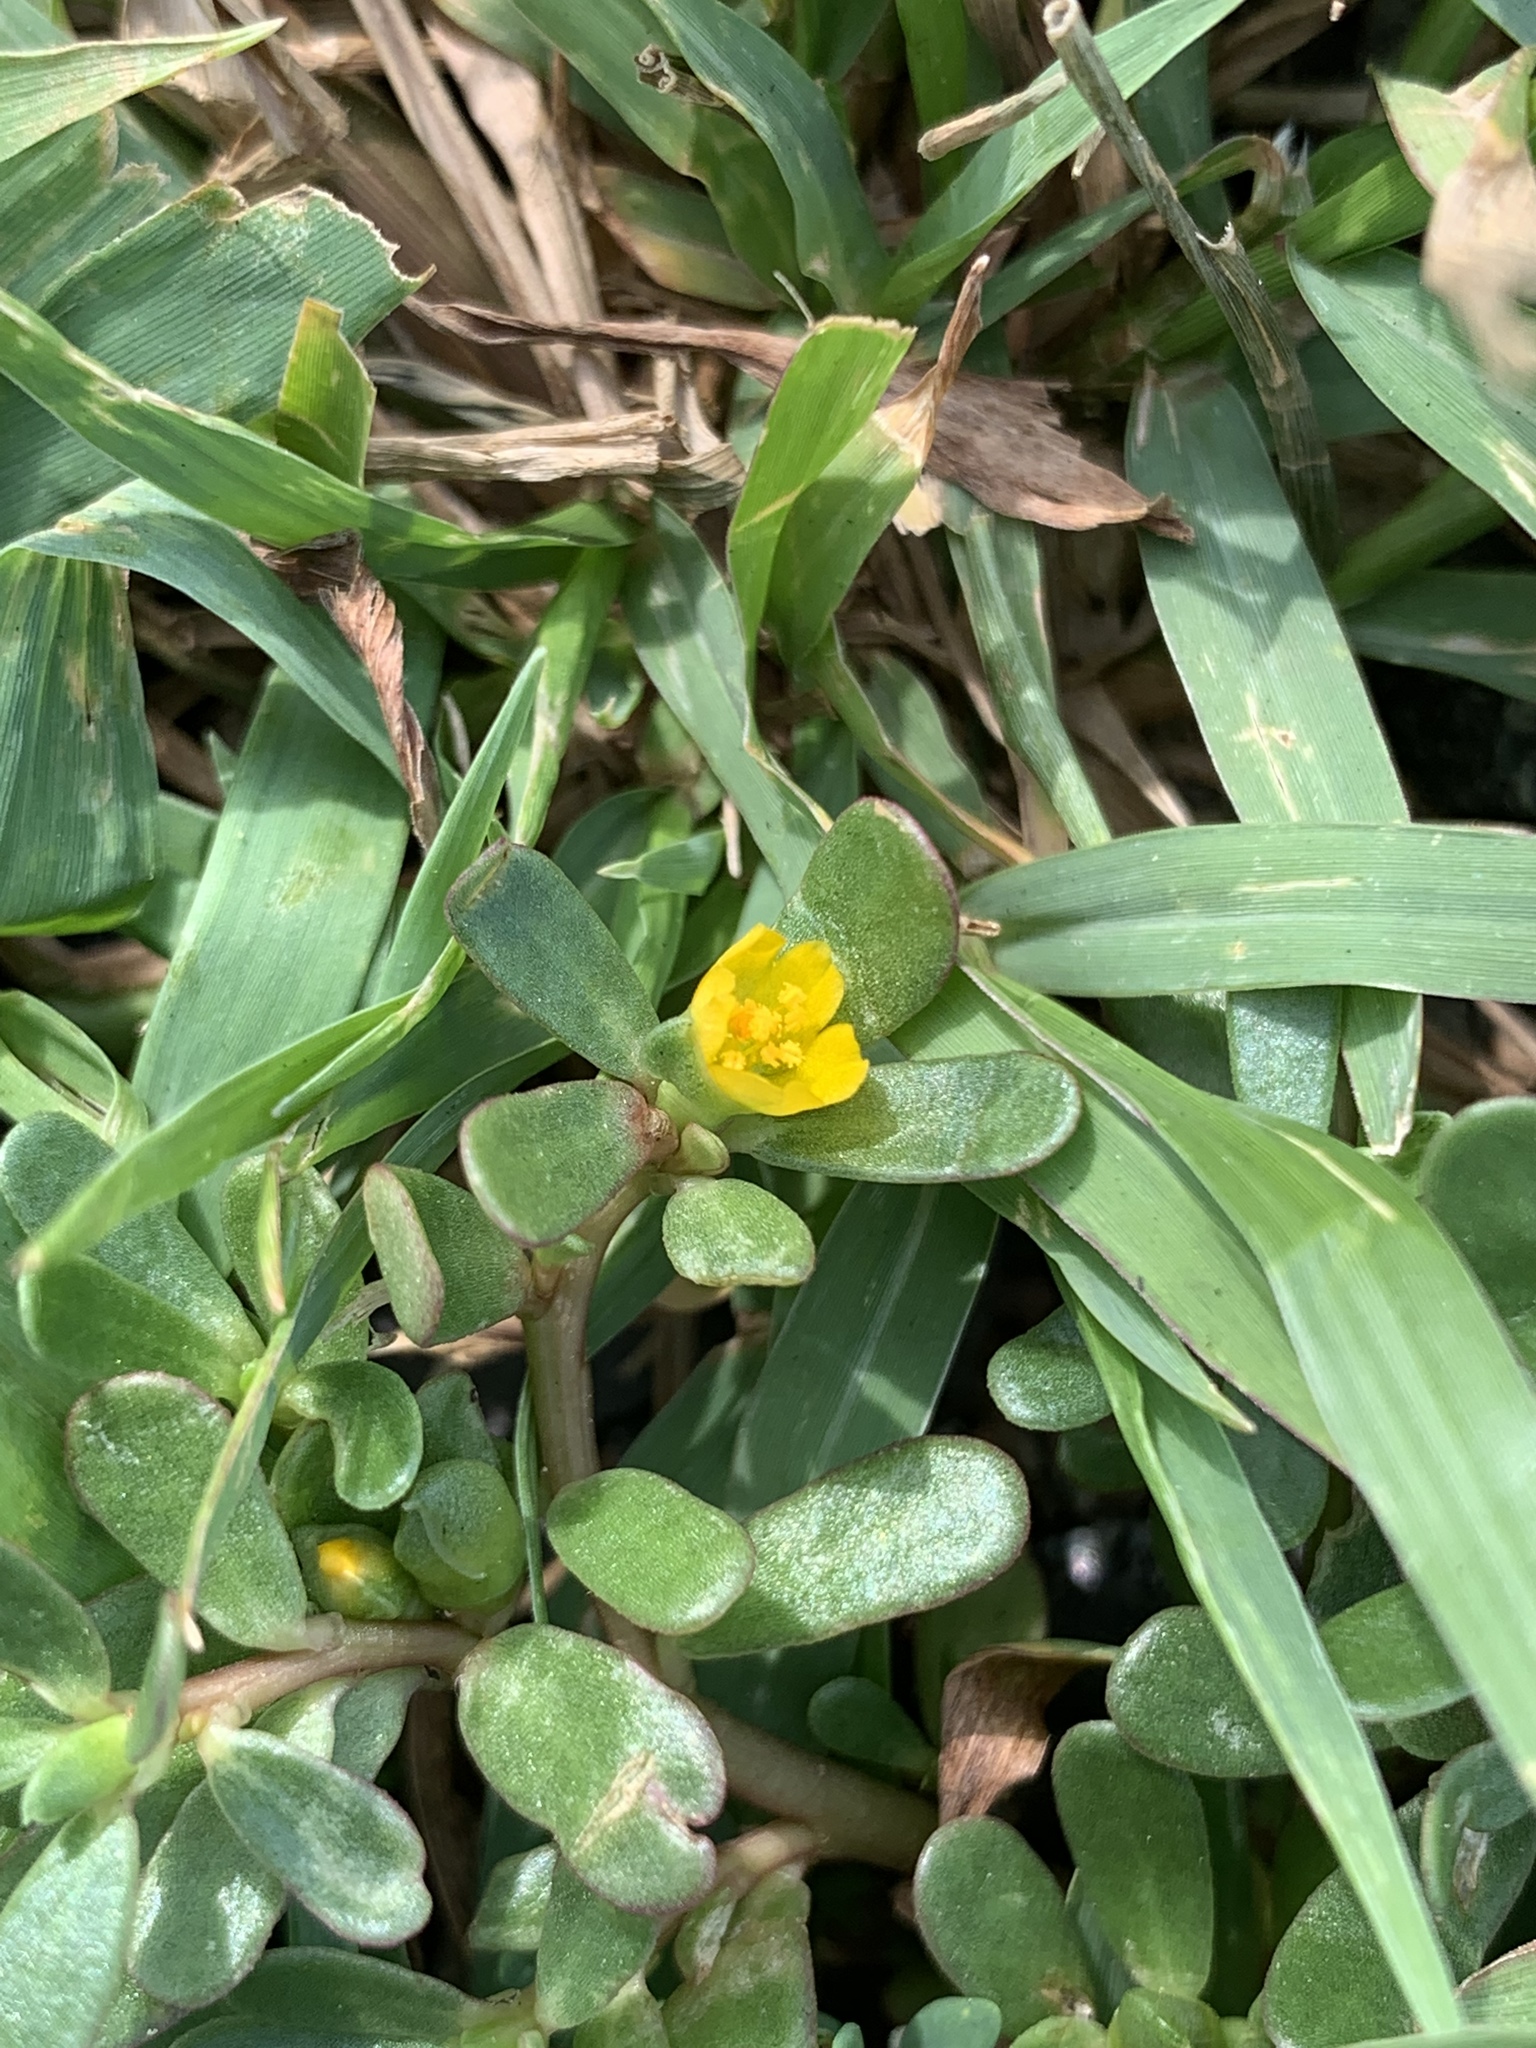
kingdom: Plantae
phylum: Tracheophyta
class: Magnoliopsida
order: Caryophyllales
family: Portulacaceae
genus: Portulaca
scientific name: Portulaca oleracea
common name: Common purslane
